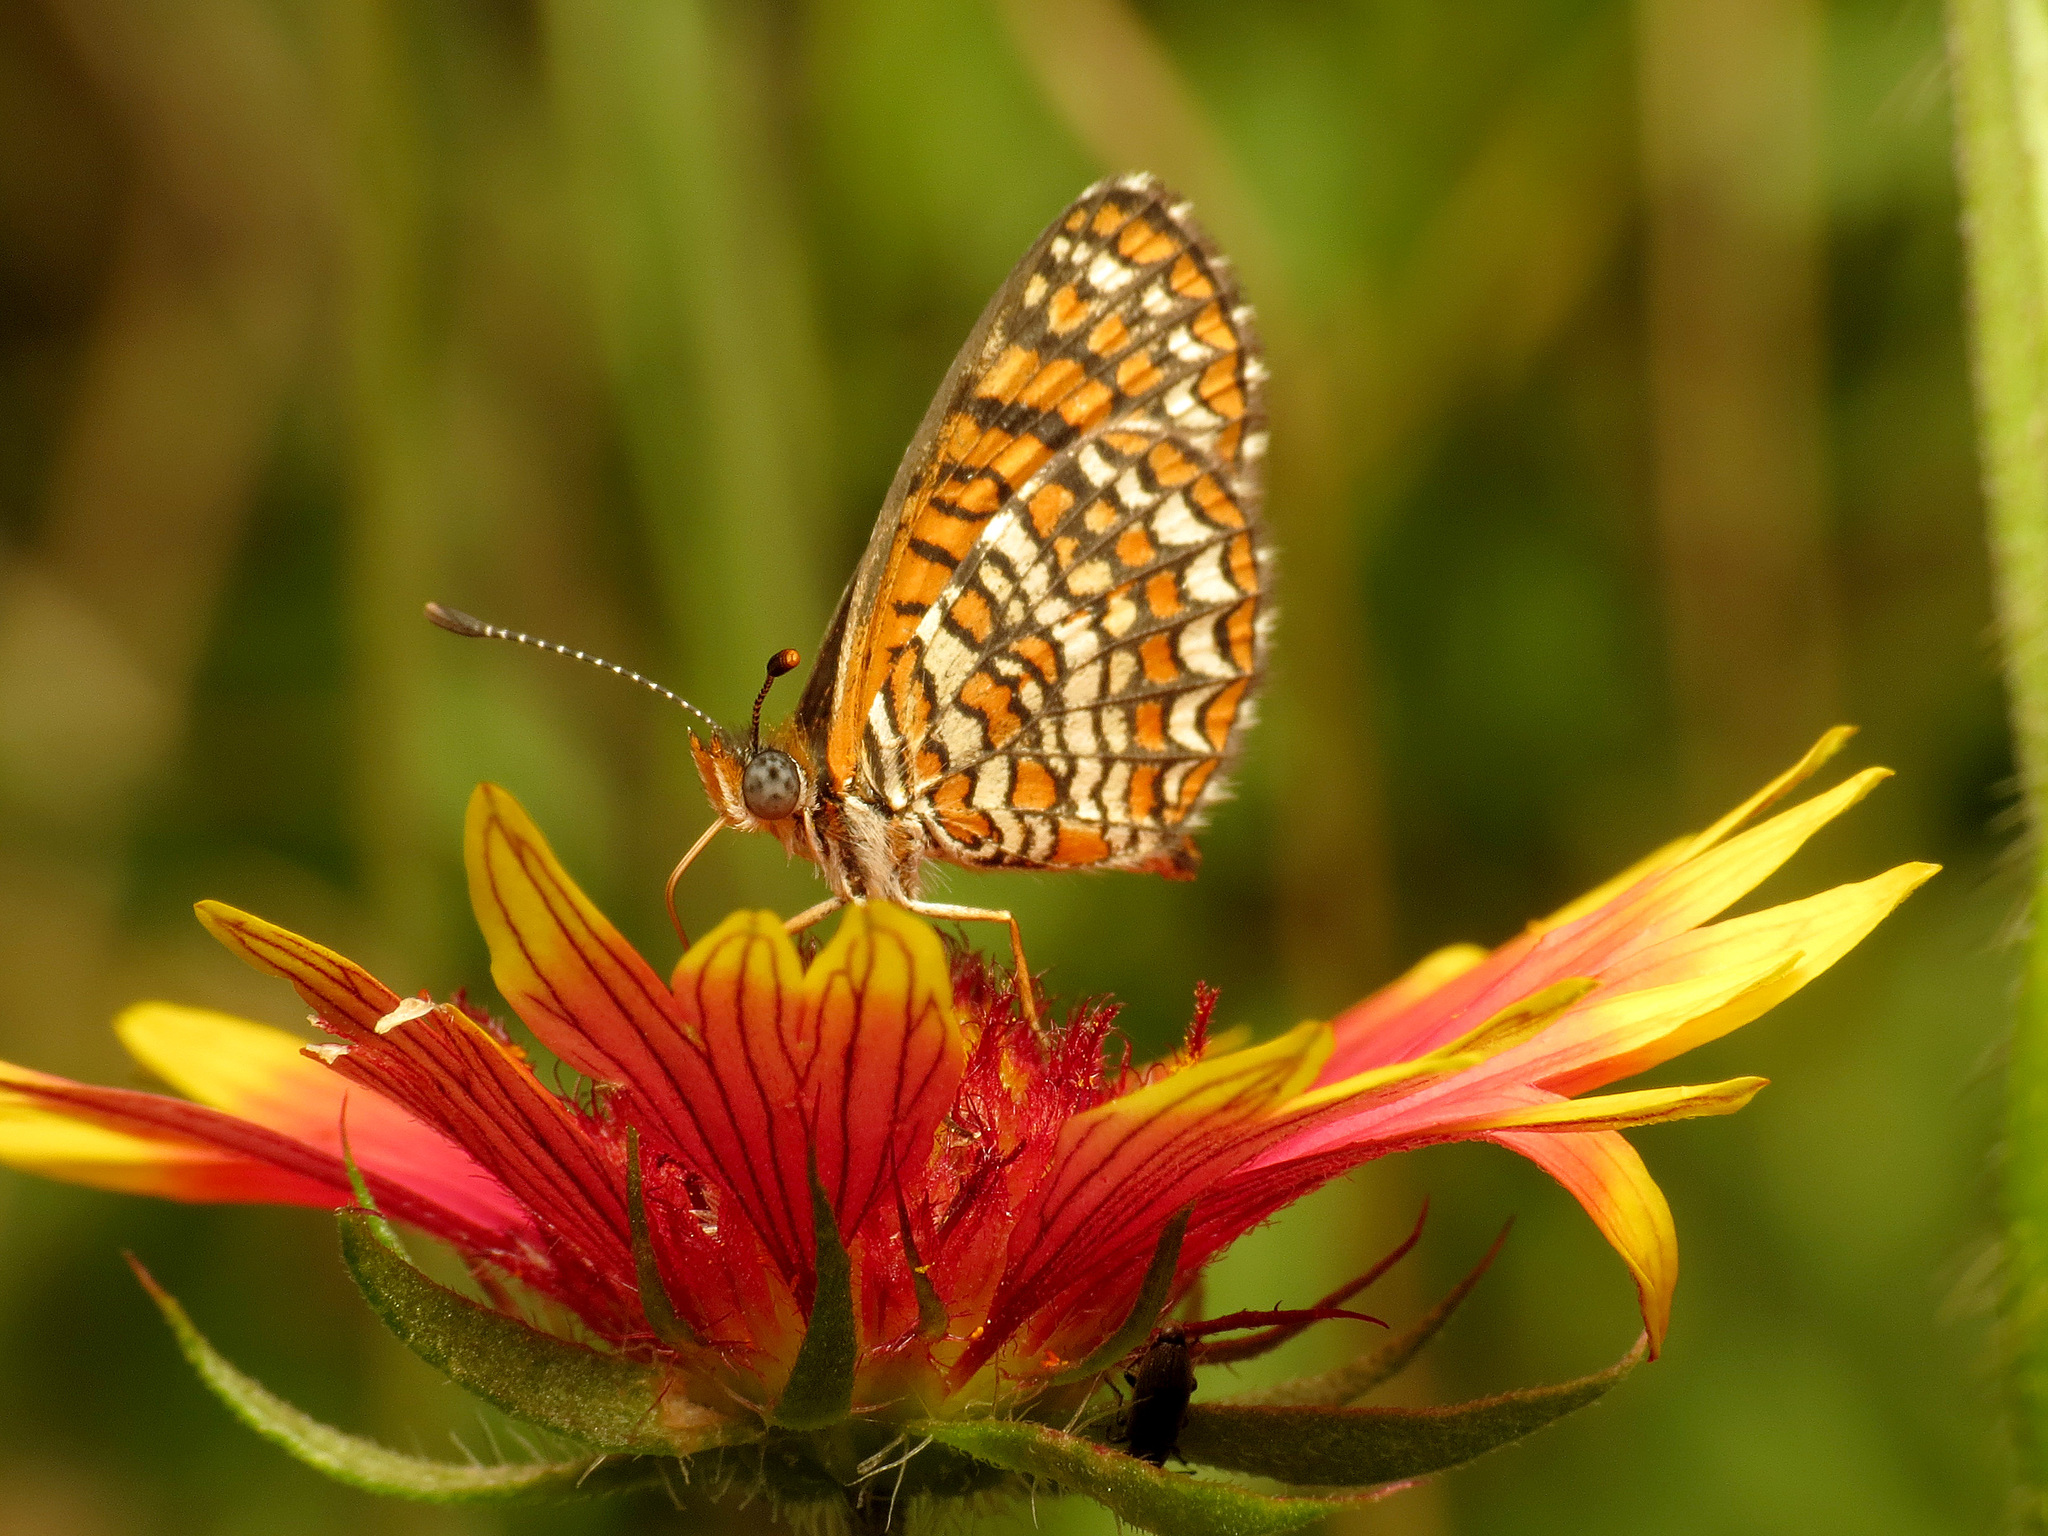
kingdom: Animalia
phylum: Arthropoda
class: Insecta
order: Lepidoptera
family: Nymphalidae
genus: Texola
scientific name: Texola
